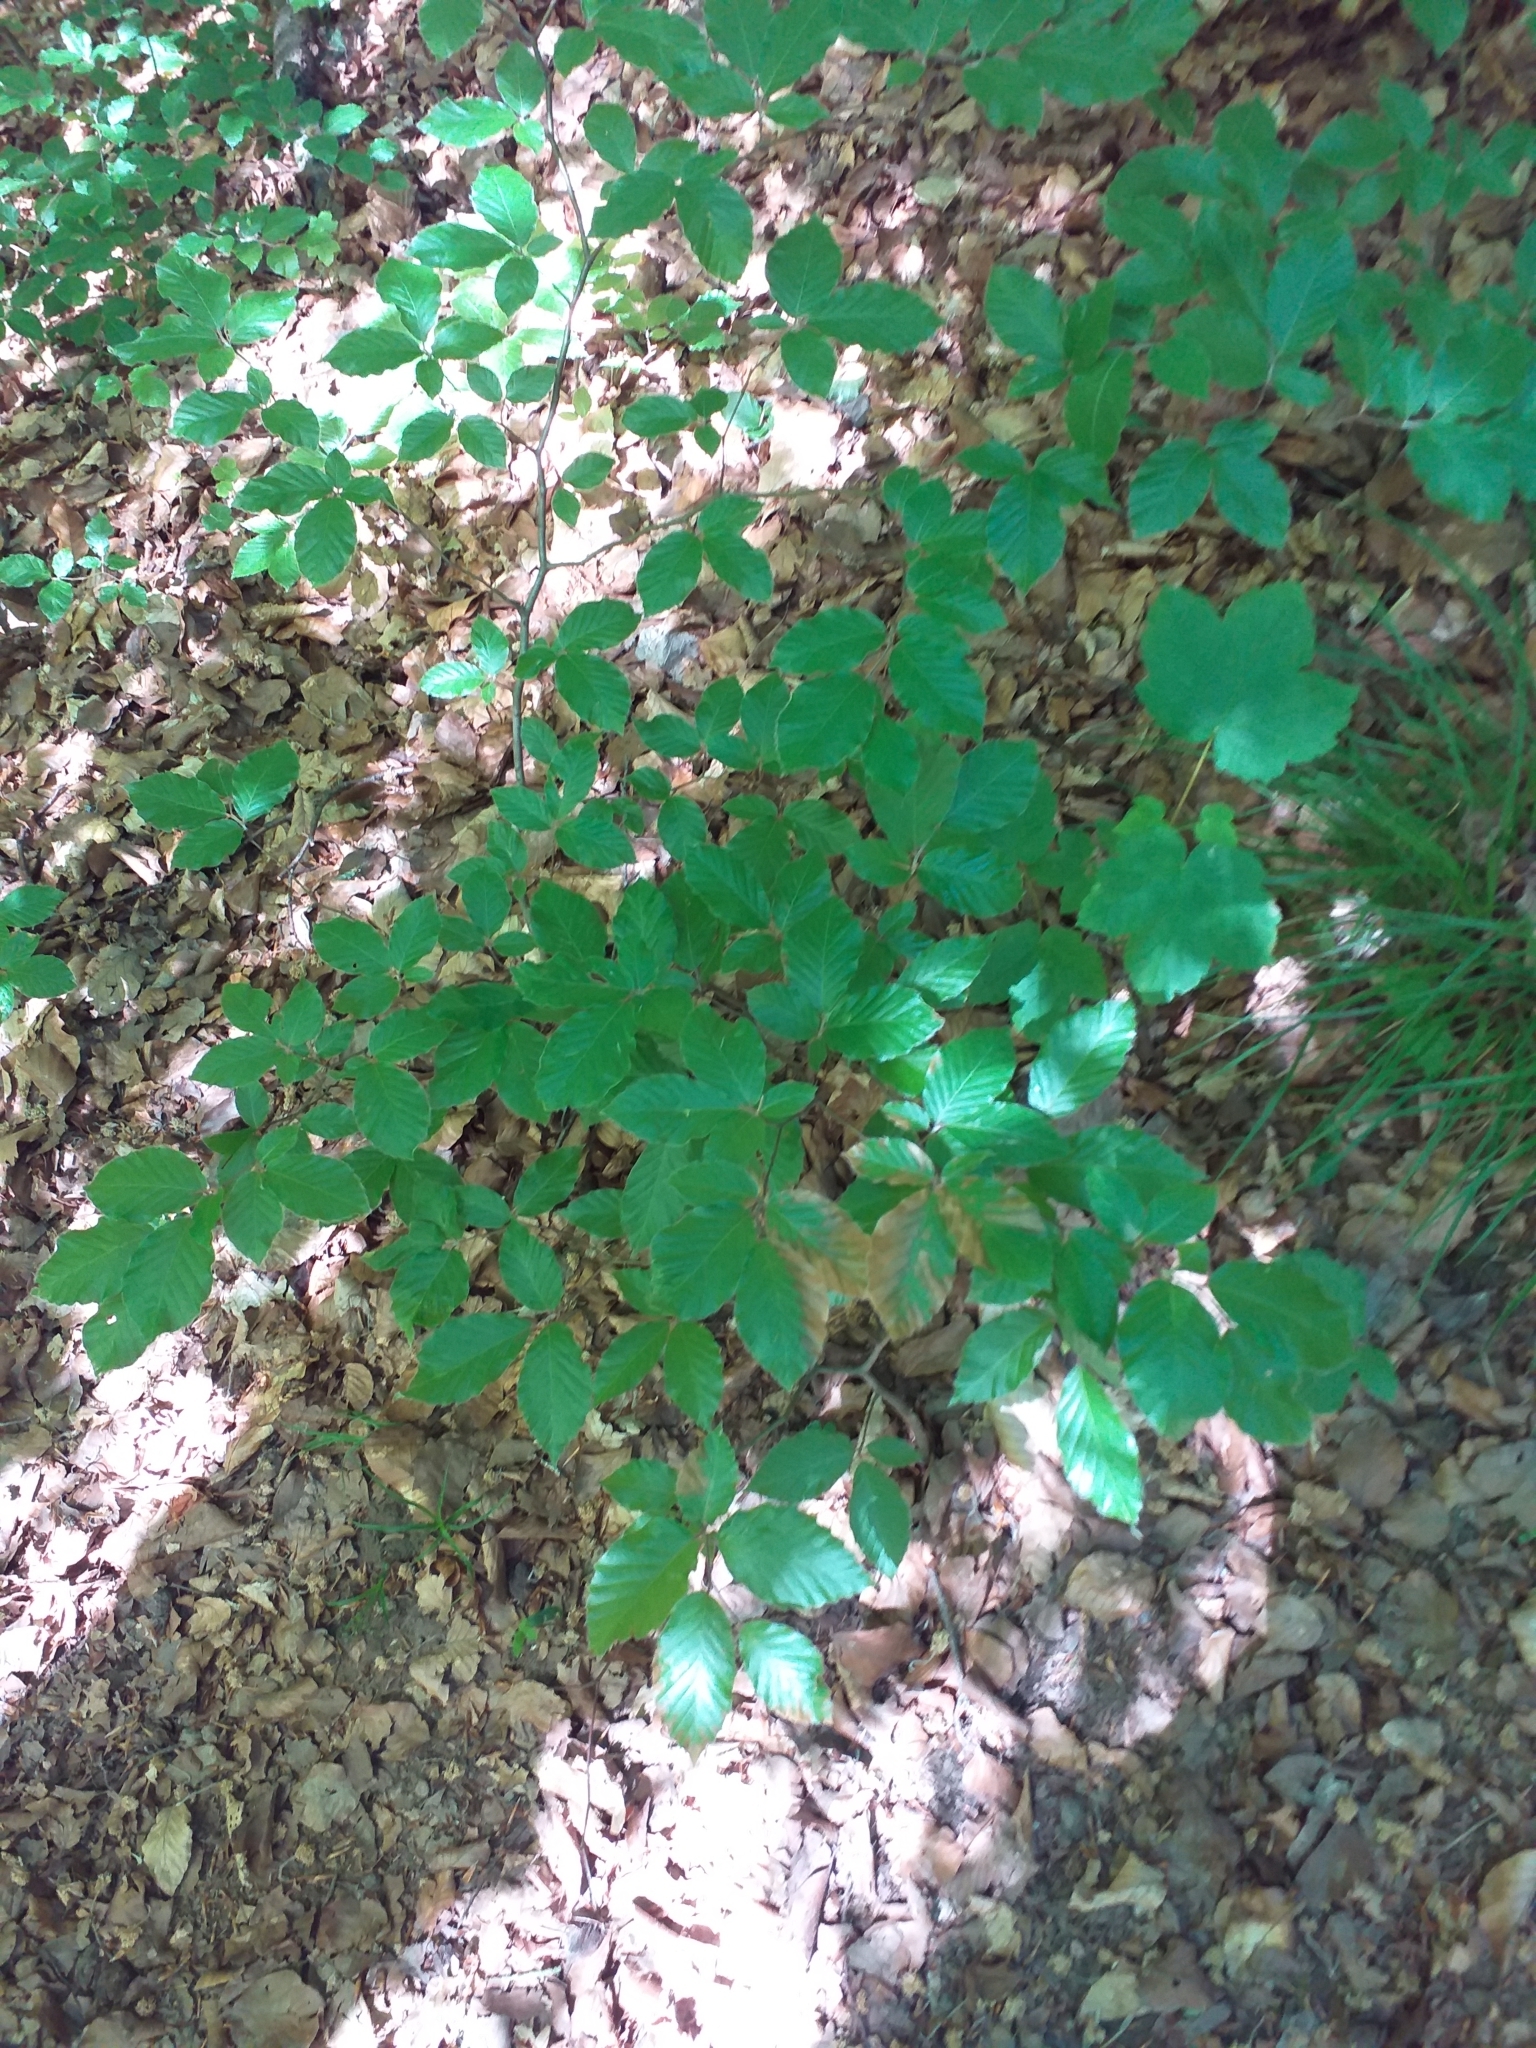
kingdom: Plantae
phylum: Tracheophyta
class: Magnoliopsida
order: Fagales
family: Fagaceae
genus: Fagus
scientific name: Fagus sylvatica
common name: Beech
